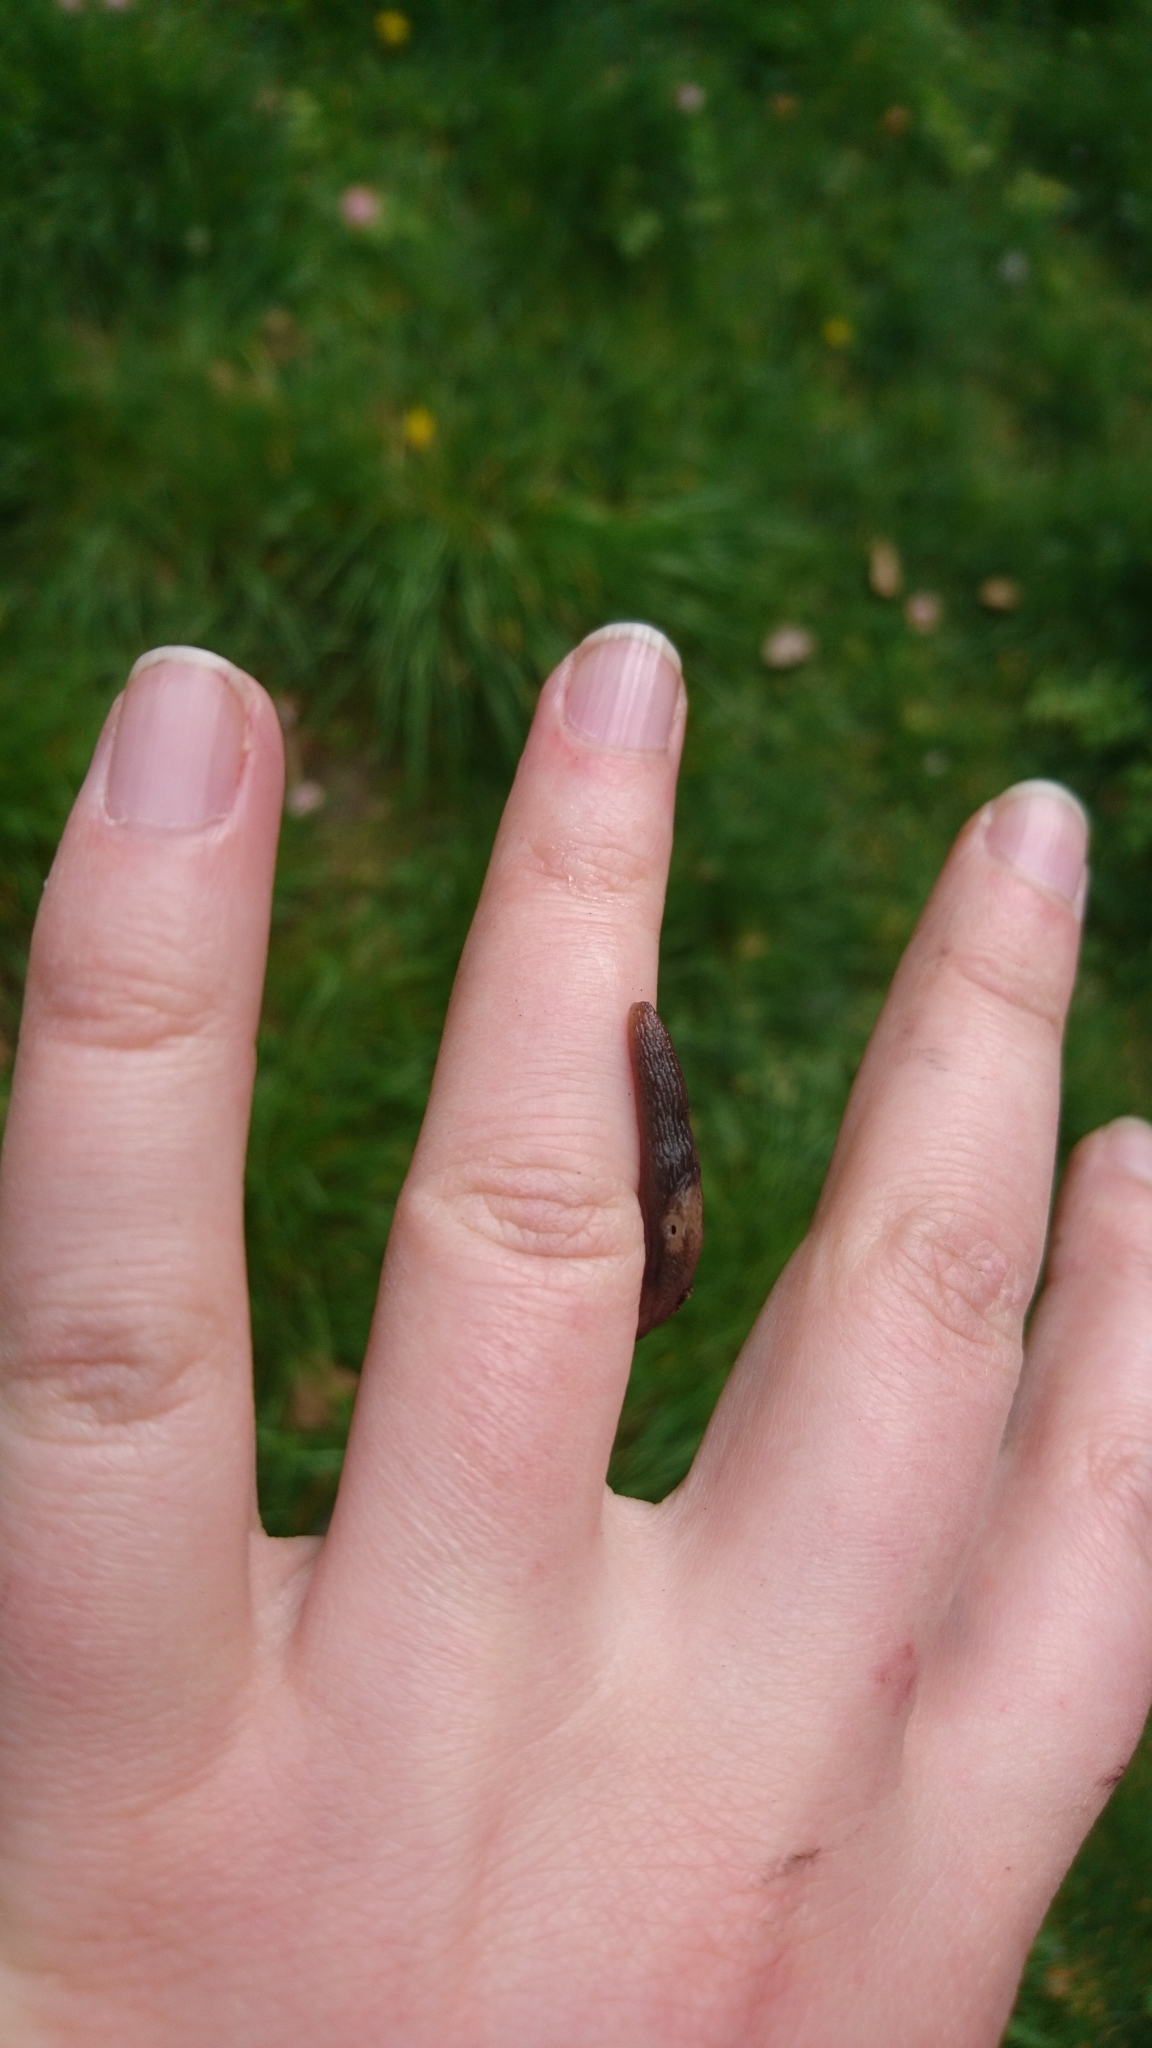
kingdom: Animalia
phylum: Mollusca
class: Gastropoda
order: Stylommatophora
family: Agriolimacidae
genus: Deroceras
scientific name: Deroceras invadens
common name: Caruana's slug
